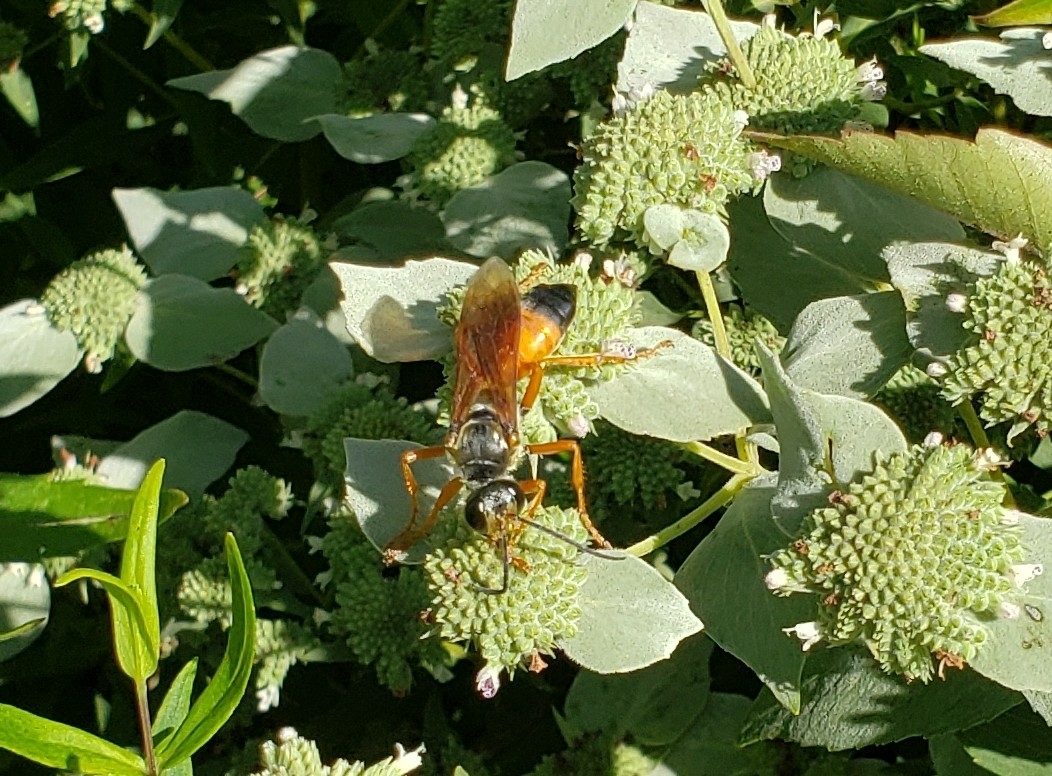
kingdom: Animalia
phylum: Arthropoda
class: Insecta
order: Hymenoptera
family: Sphecidae
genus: Sphex
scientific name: Sphex ichneumoneus
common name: Great golden digger wasp
